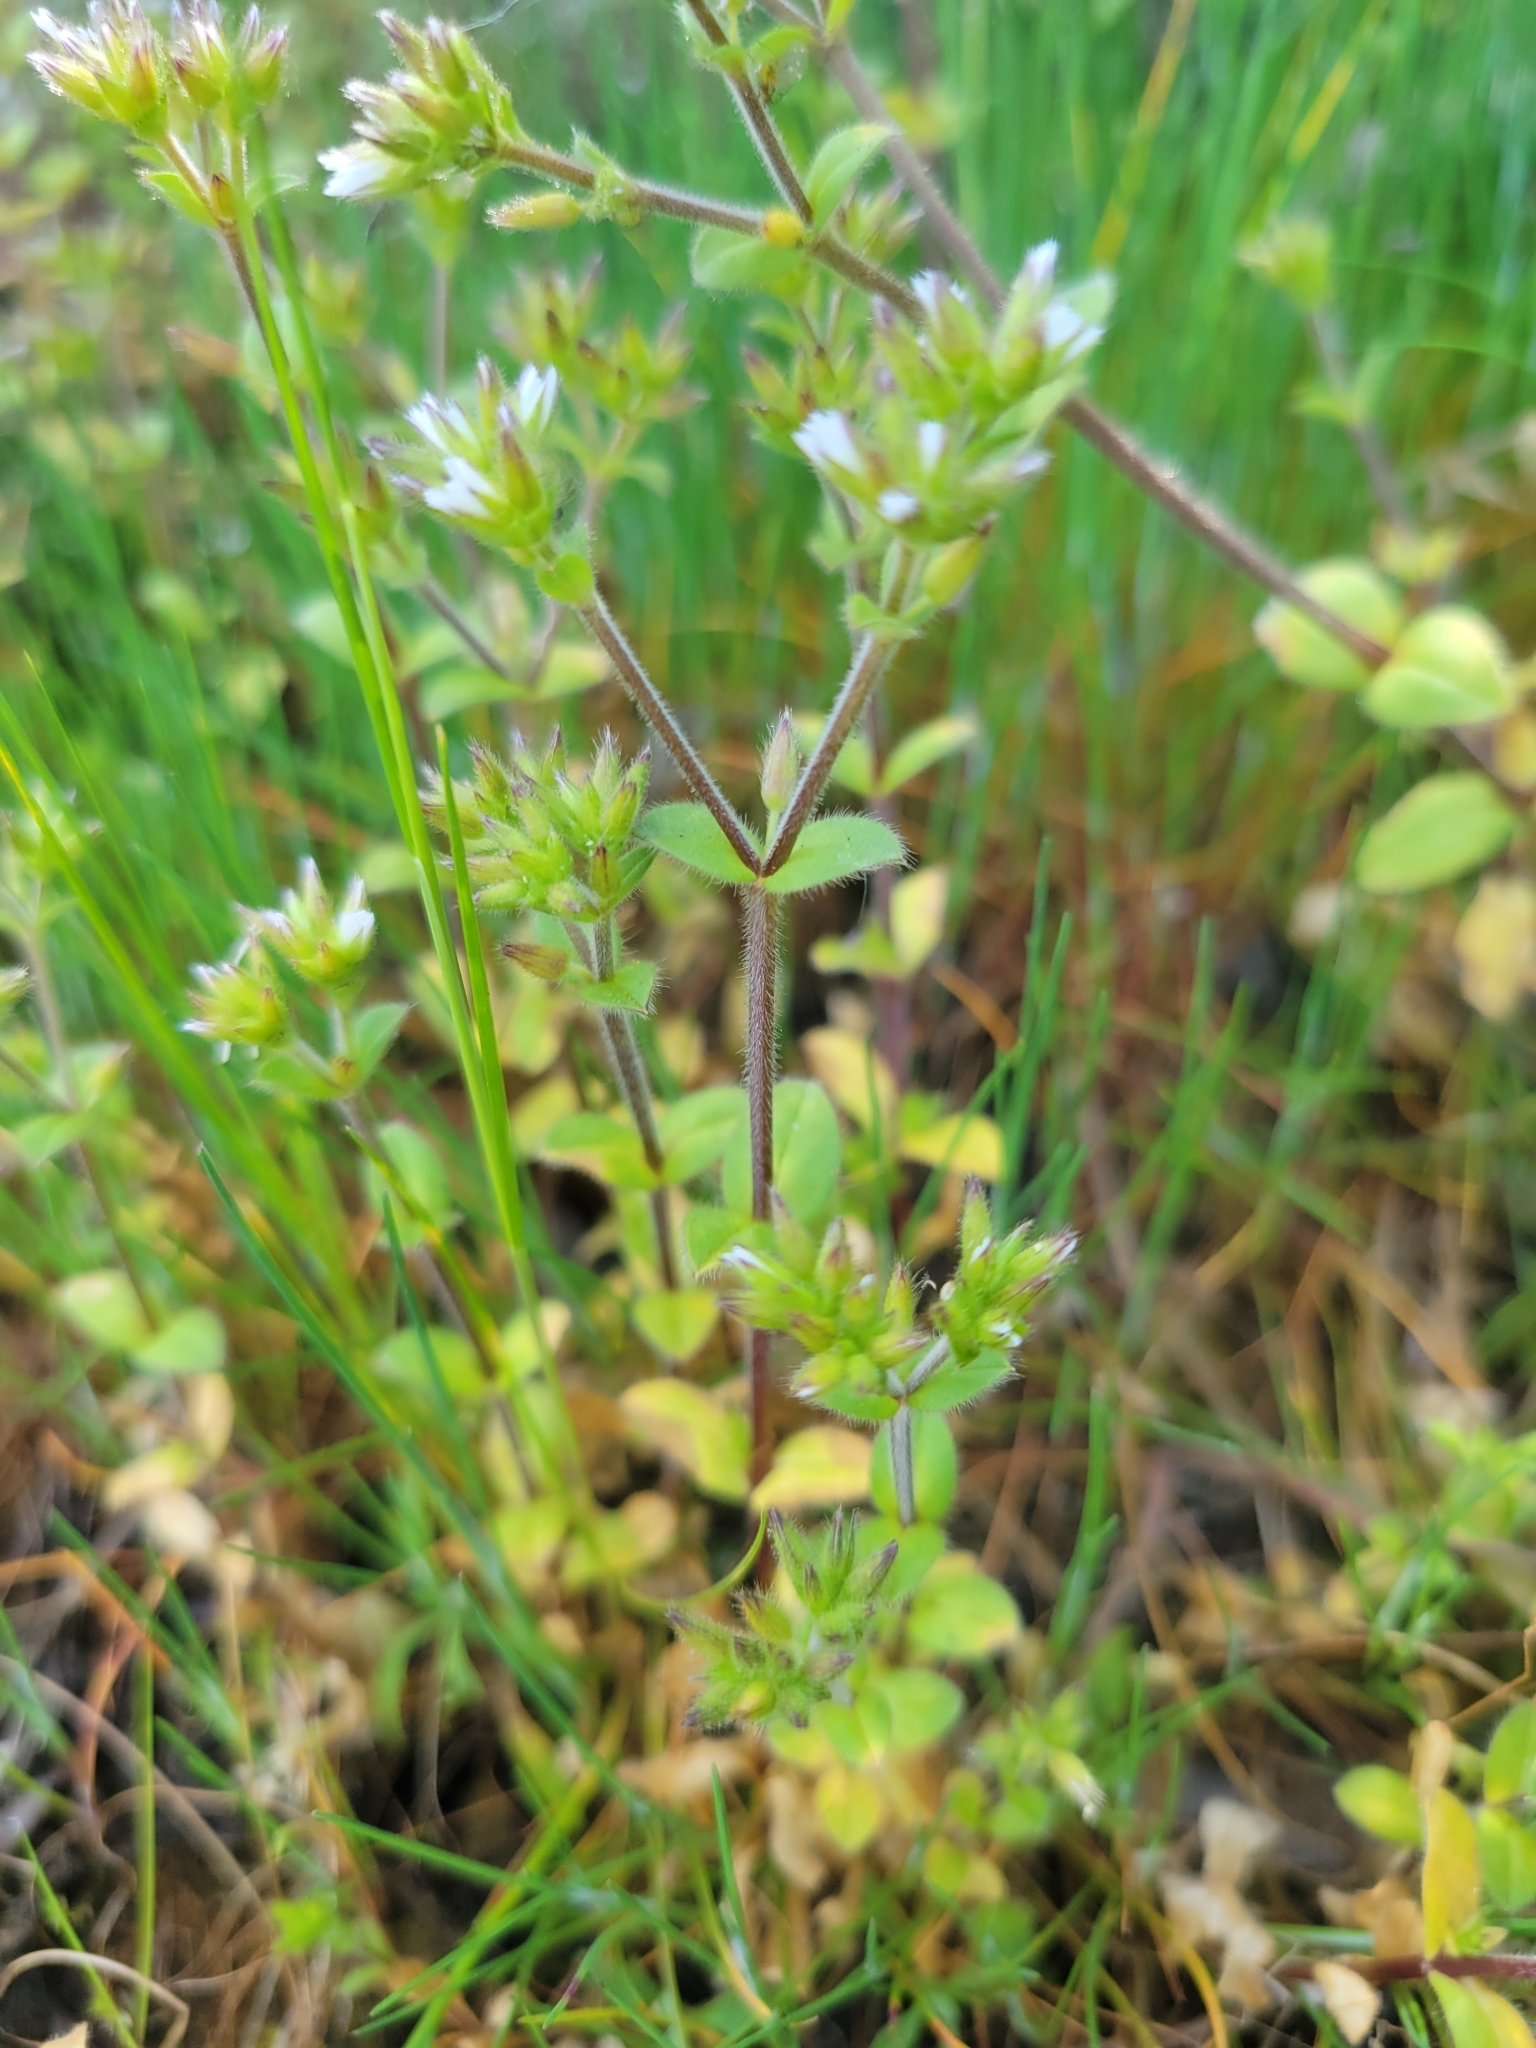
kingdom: Plantae
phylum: Tracheophyta
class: Magnoliopsida
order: Caryophyllales
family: Caryophyllaceae
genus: Cerastium
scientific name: Cerastium glomeratum
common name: Sticky chickweed
